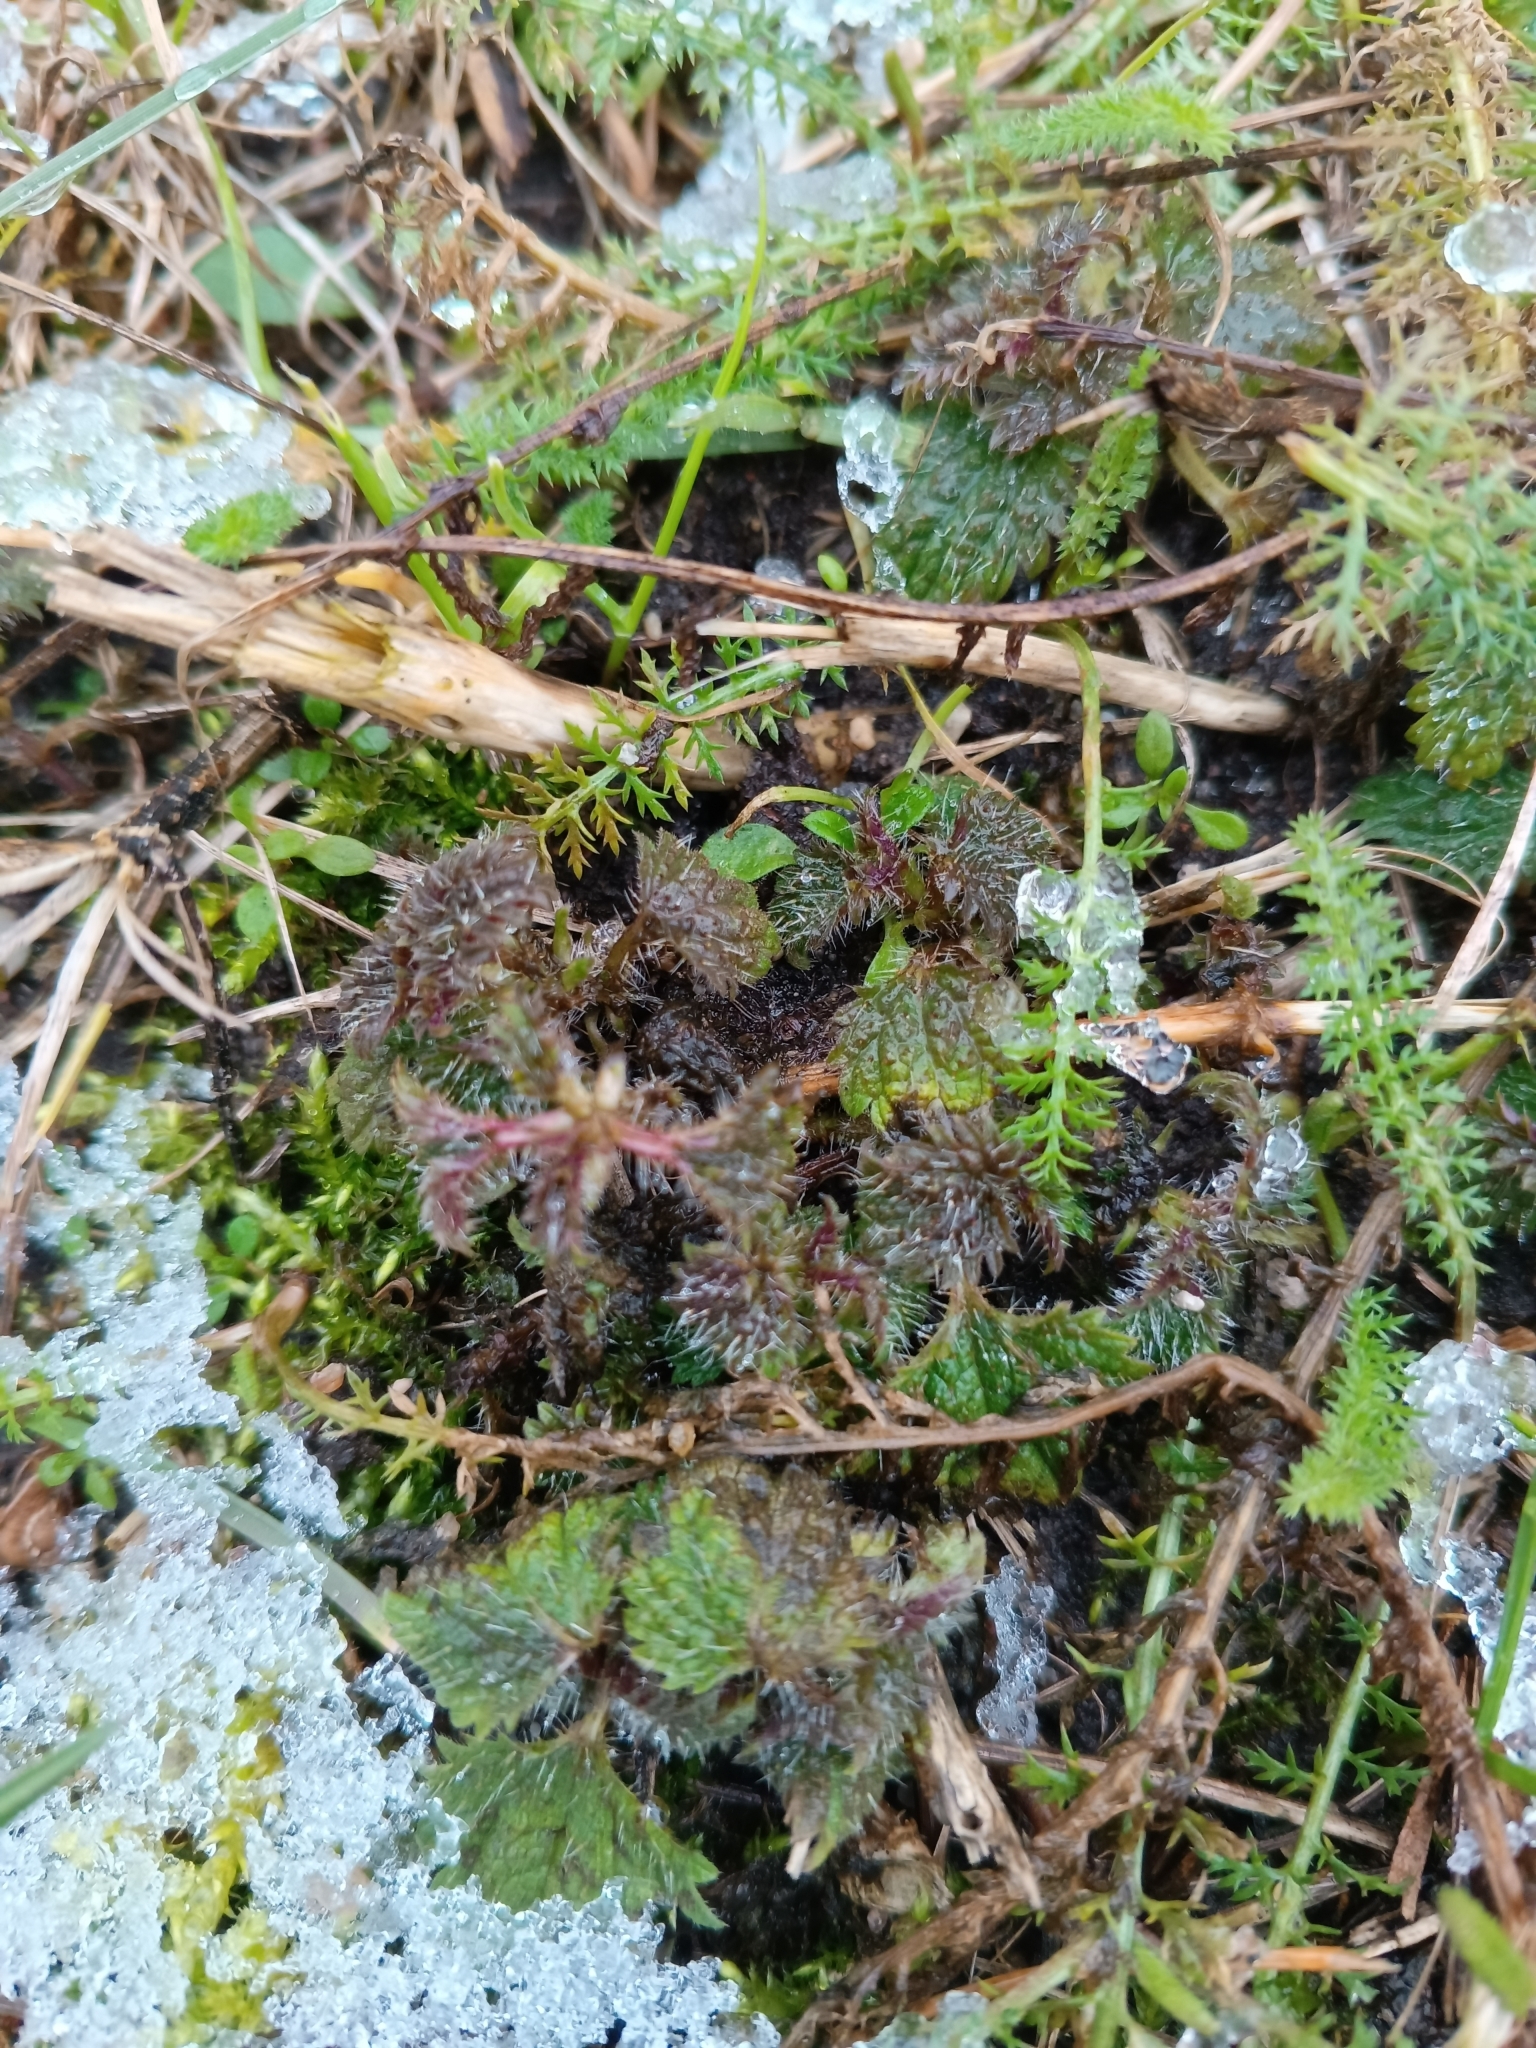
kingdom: Plantae
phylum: Tracheophyta
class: Magnoliopsida
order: Rosales
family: Urticaceae
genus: Urtica
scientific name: Urtica dioica
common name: Common nettle
